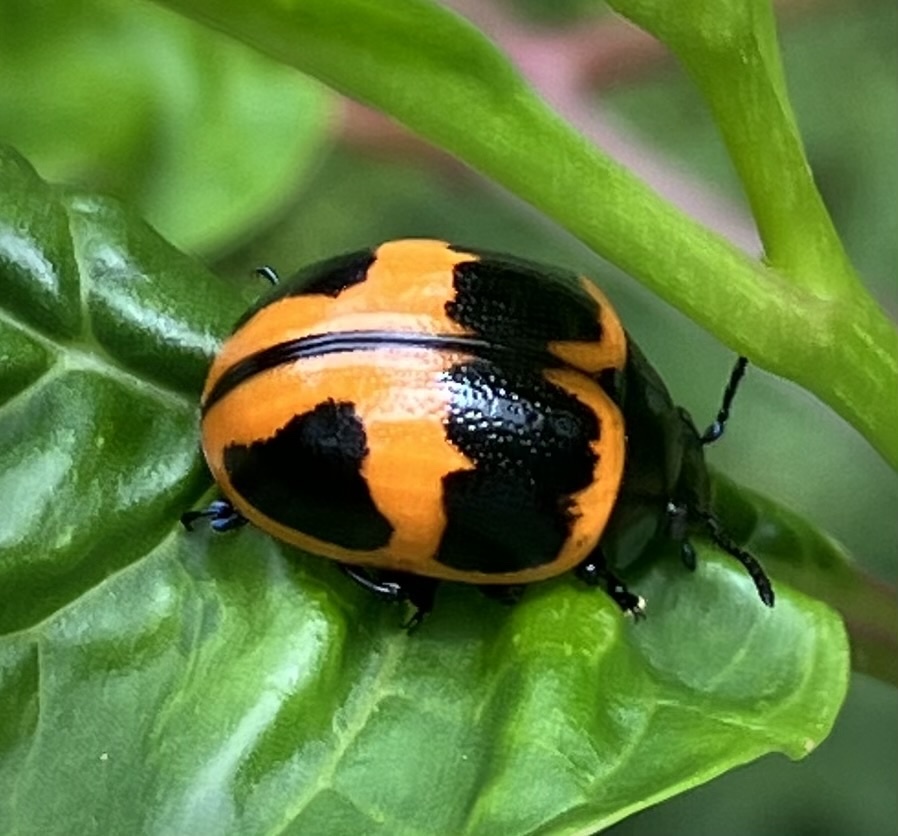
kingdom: Animalia
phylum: Arthropoda
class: Insecta
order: Coleoptera
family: Chrysomelidae
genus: Labidomera
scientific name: Labidomera clivicollis
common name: Swamp milkweed leaf beetle
